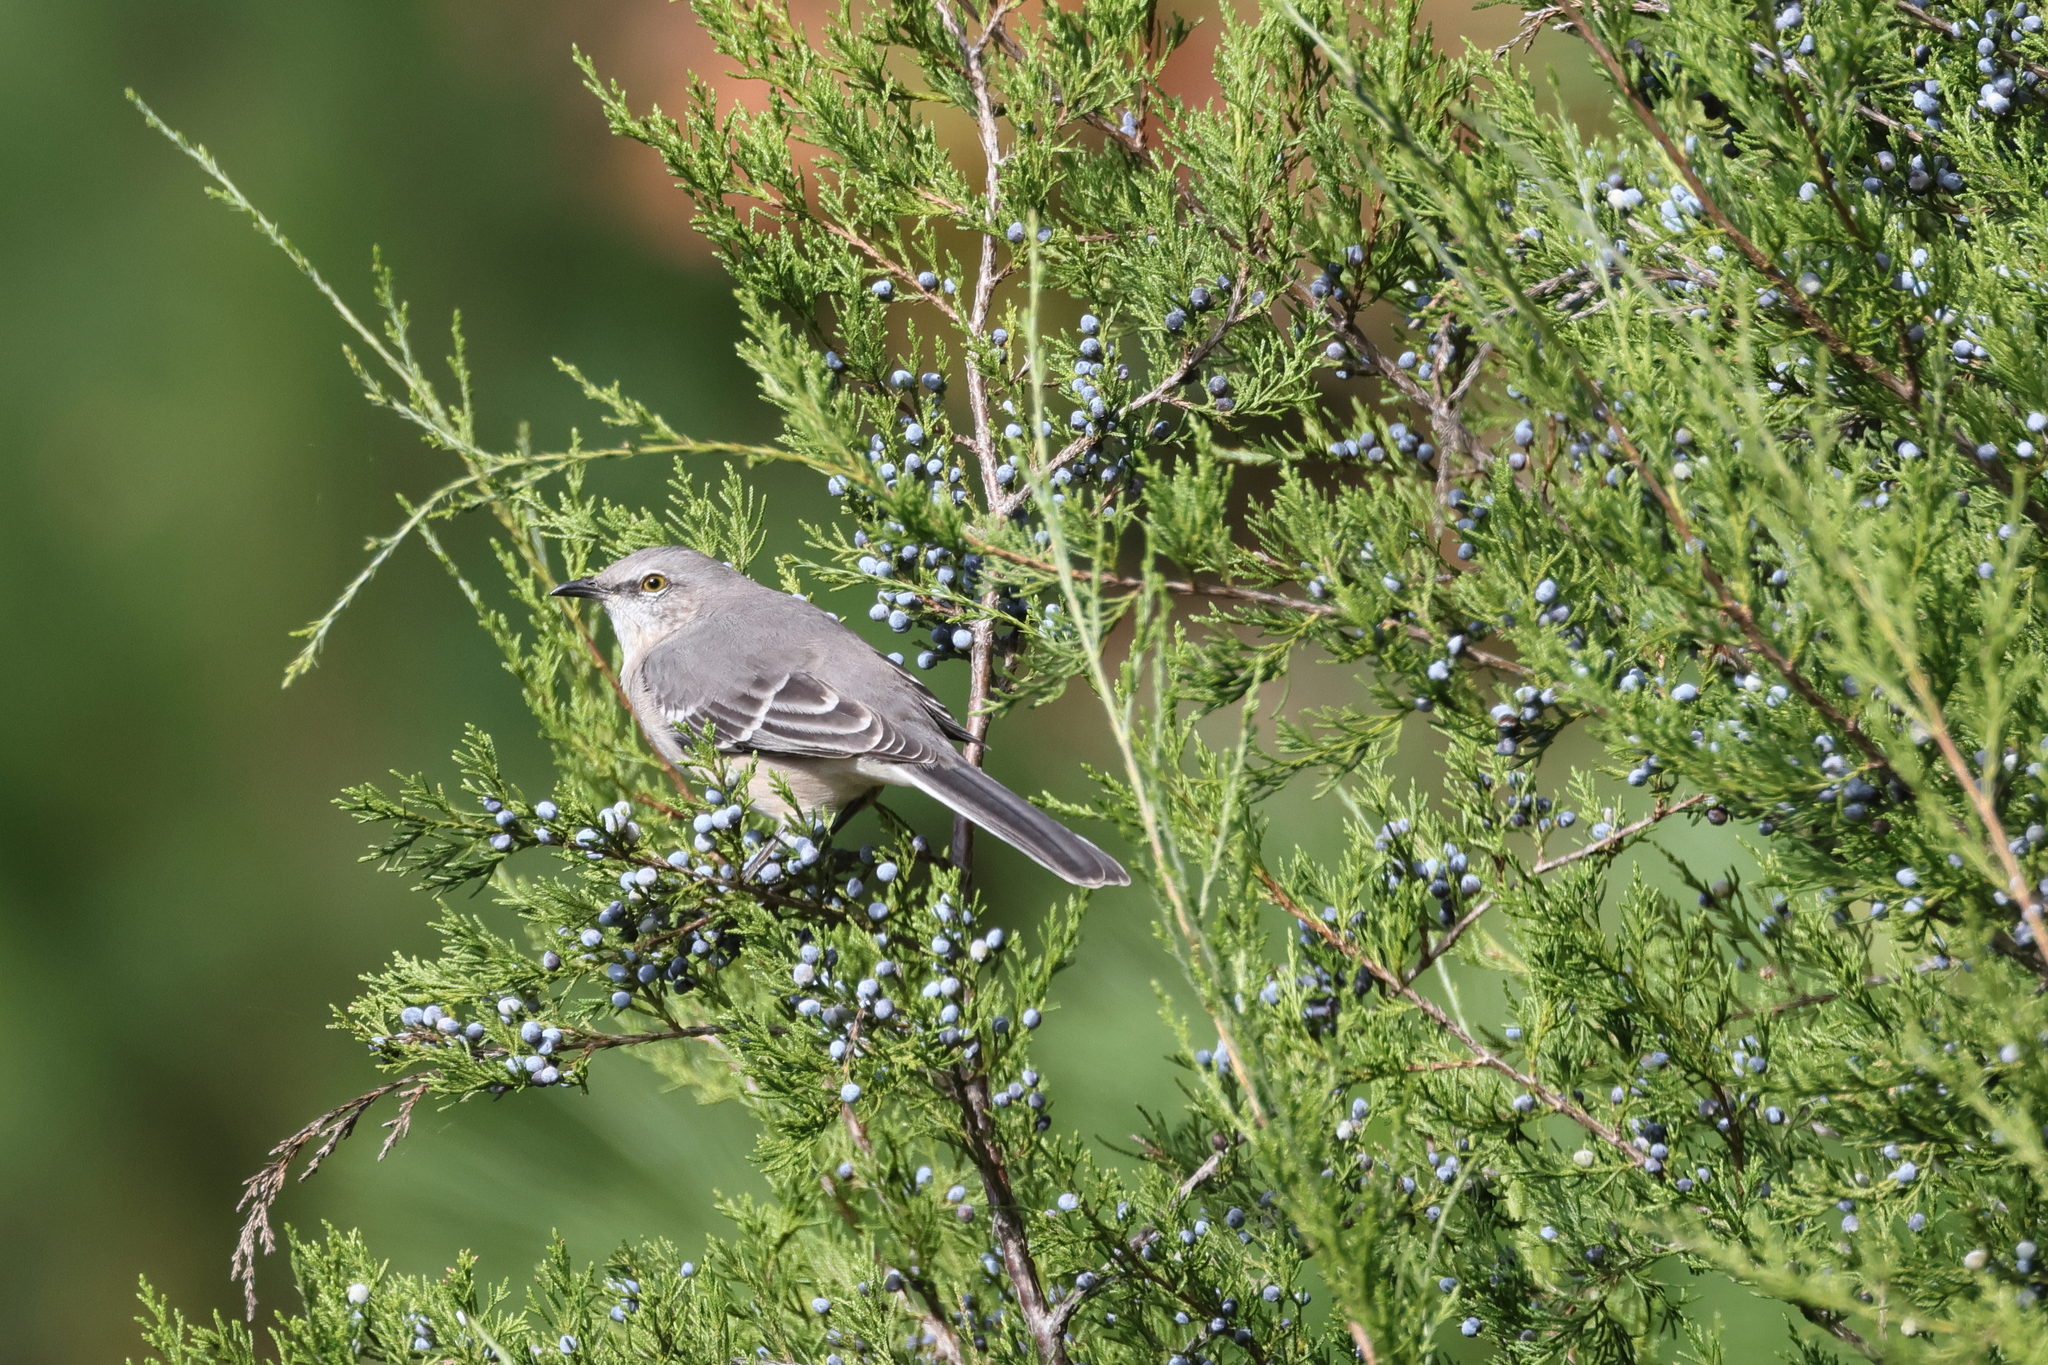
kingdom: Animalia
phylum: Chordata
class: Aves
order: Passeriformes
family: Mimidae
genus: Mimus
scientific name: Mimus polyglottos
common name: Northern mockingbird
